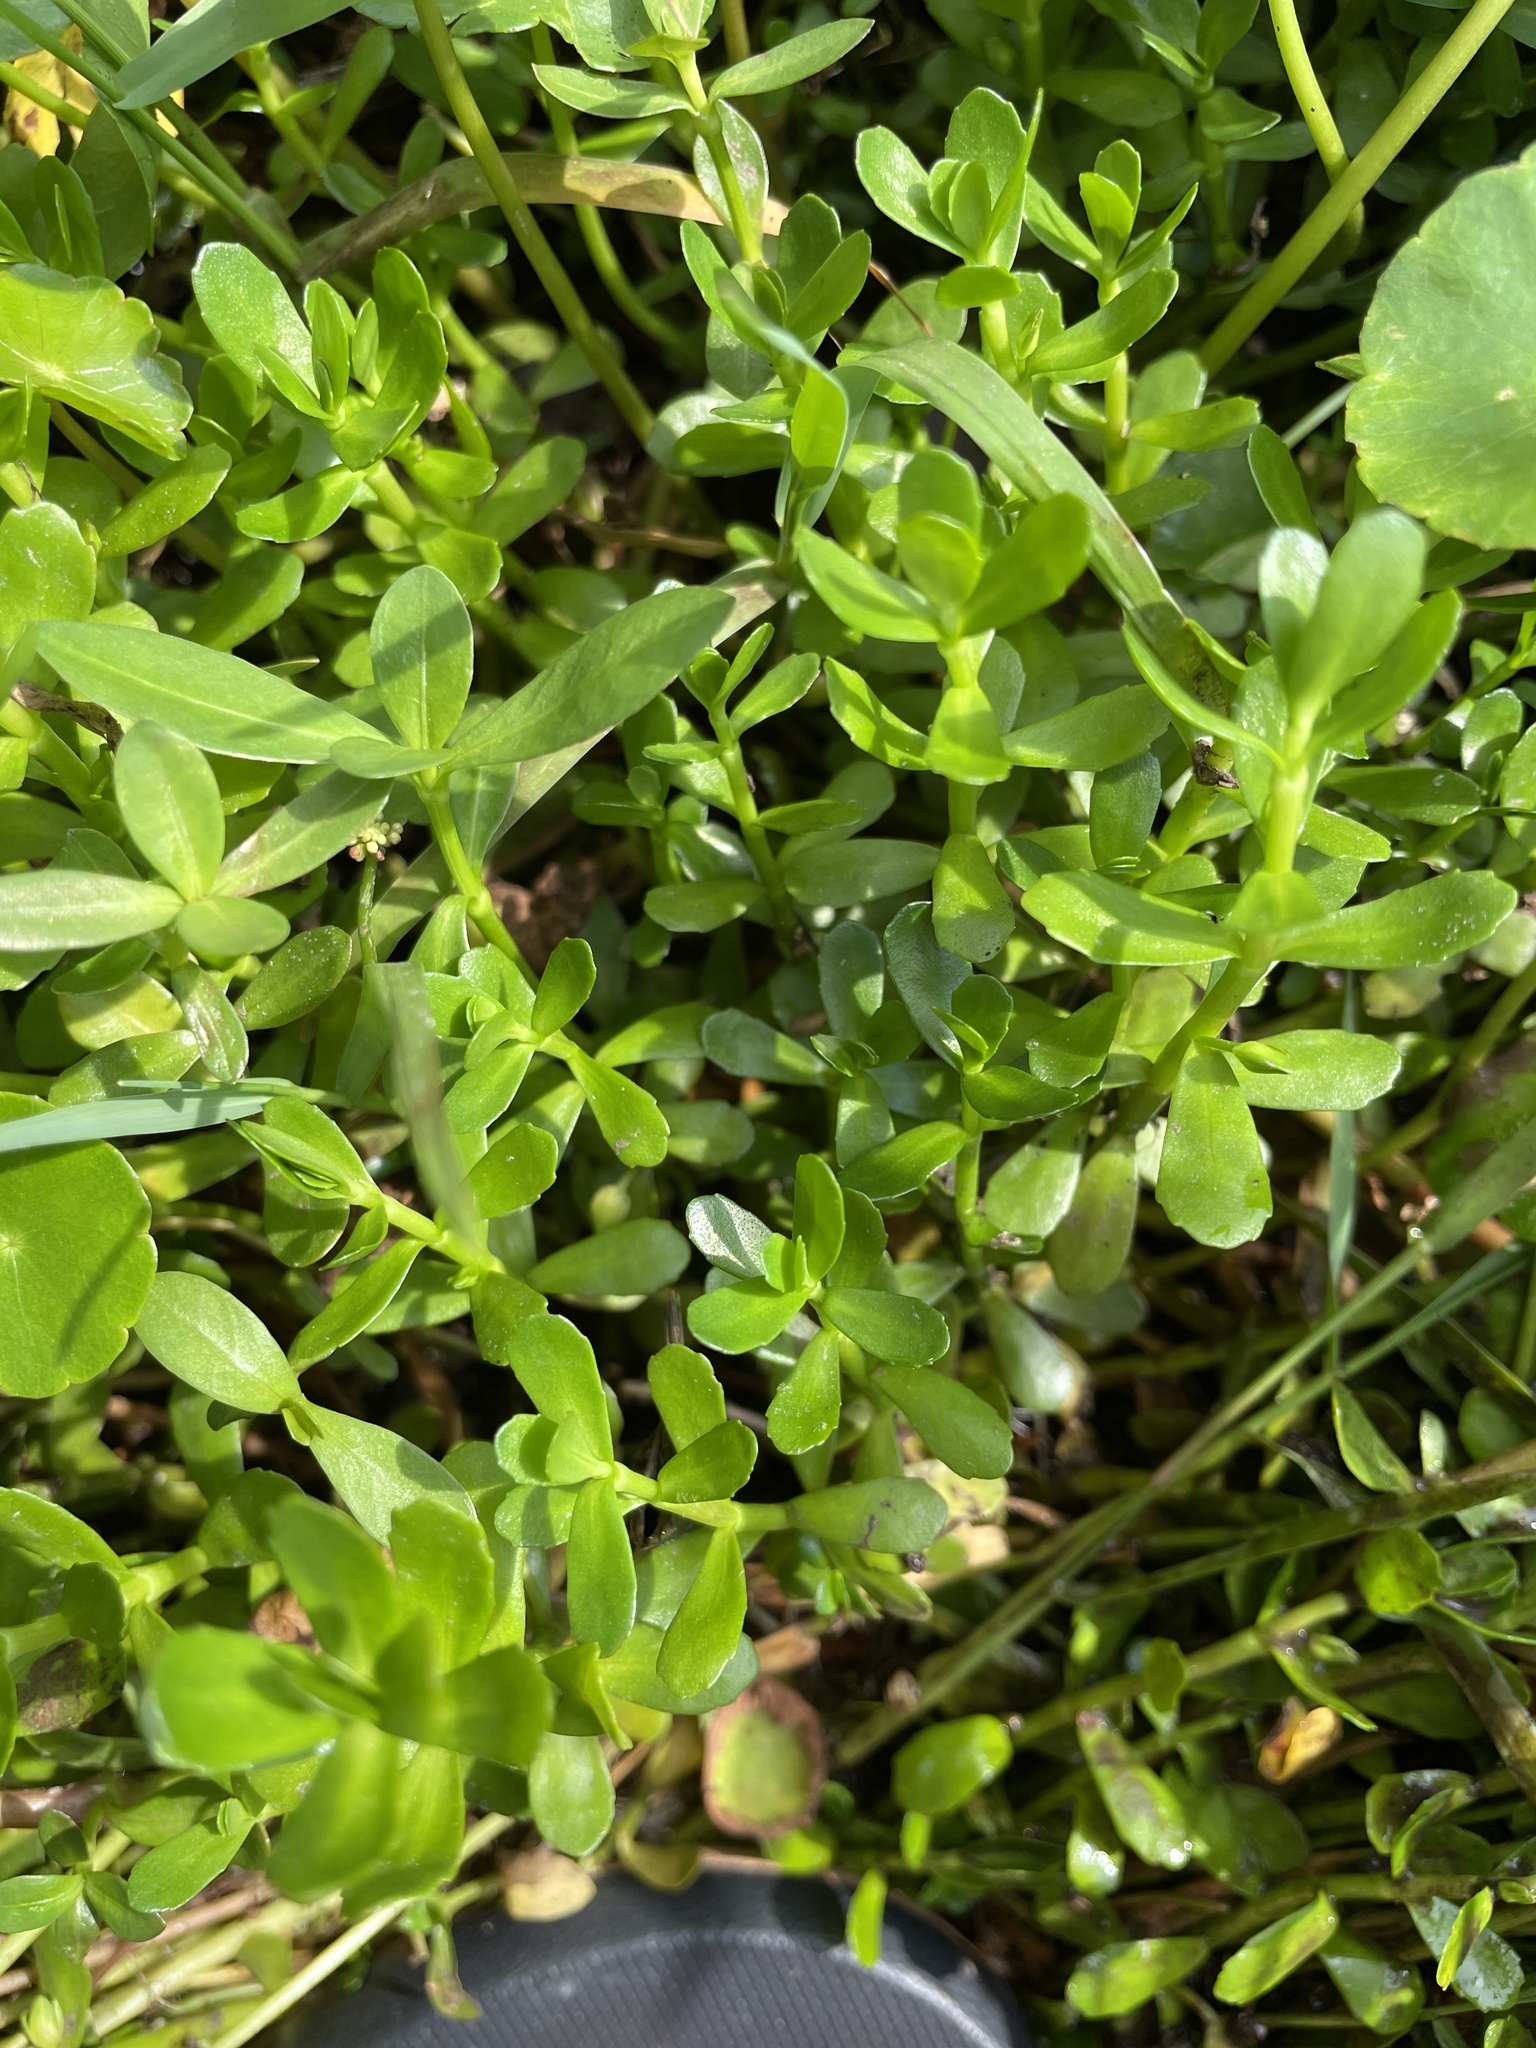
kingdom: Plantae
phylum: Tracheophyta
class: Magnoliopsida
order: Lamiales
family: Plantaginaceae
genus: Bacopa
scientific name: Bacopa monnieri
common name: Indian-pennywort
